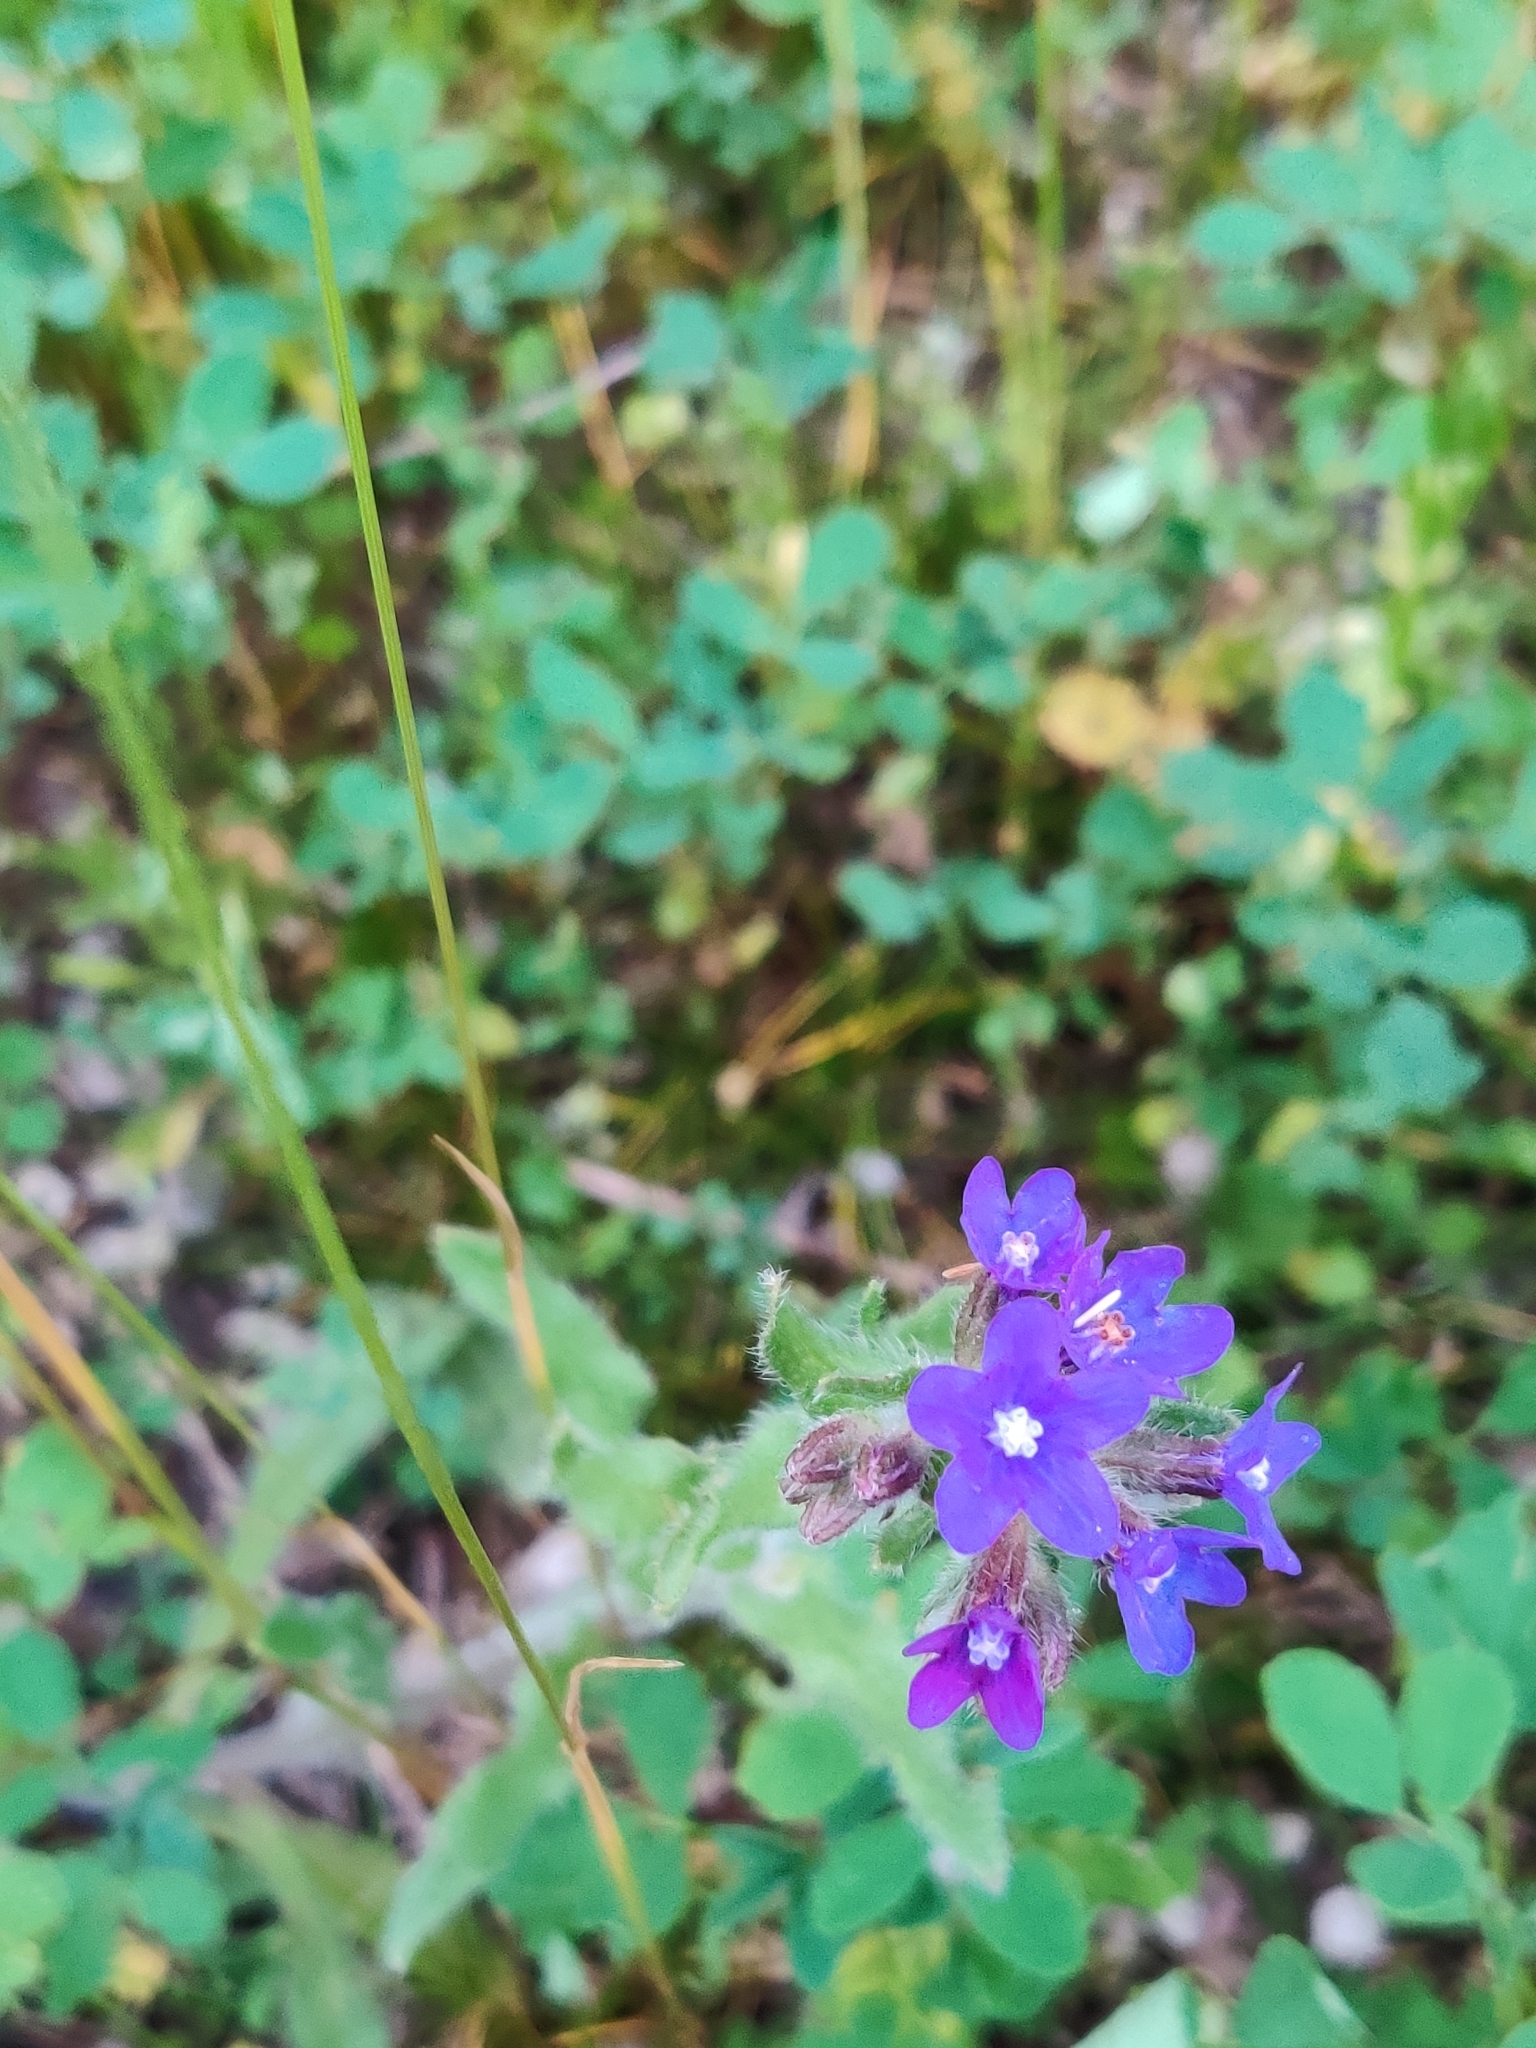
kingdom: Plantae
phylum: Tracheophyta
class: Magnoliopsida
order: Boraginales
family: Boraginaceae
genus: Anchusa
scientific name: Anchusa officinalis
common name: Alkanet
